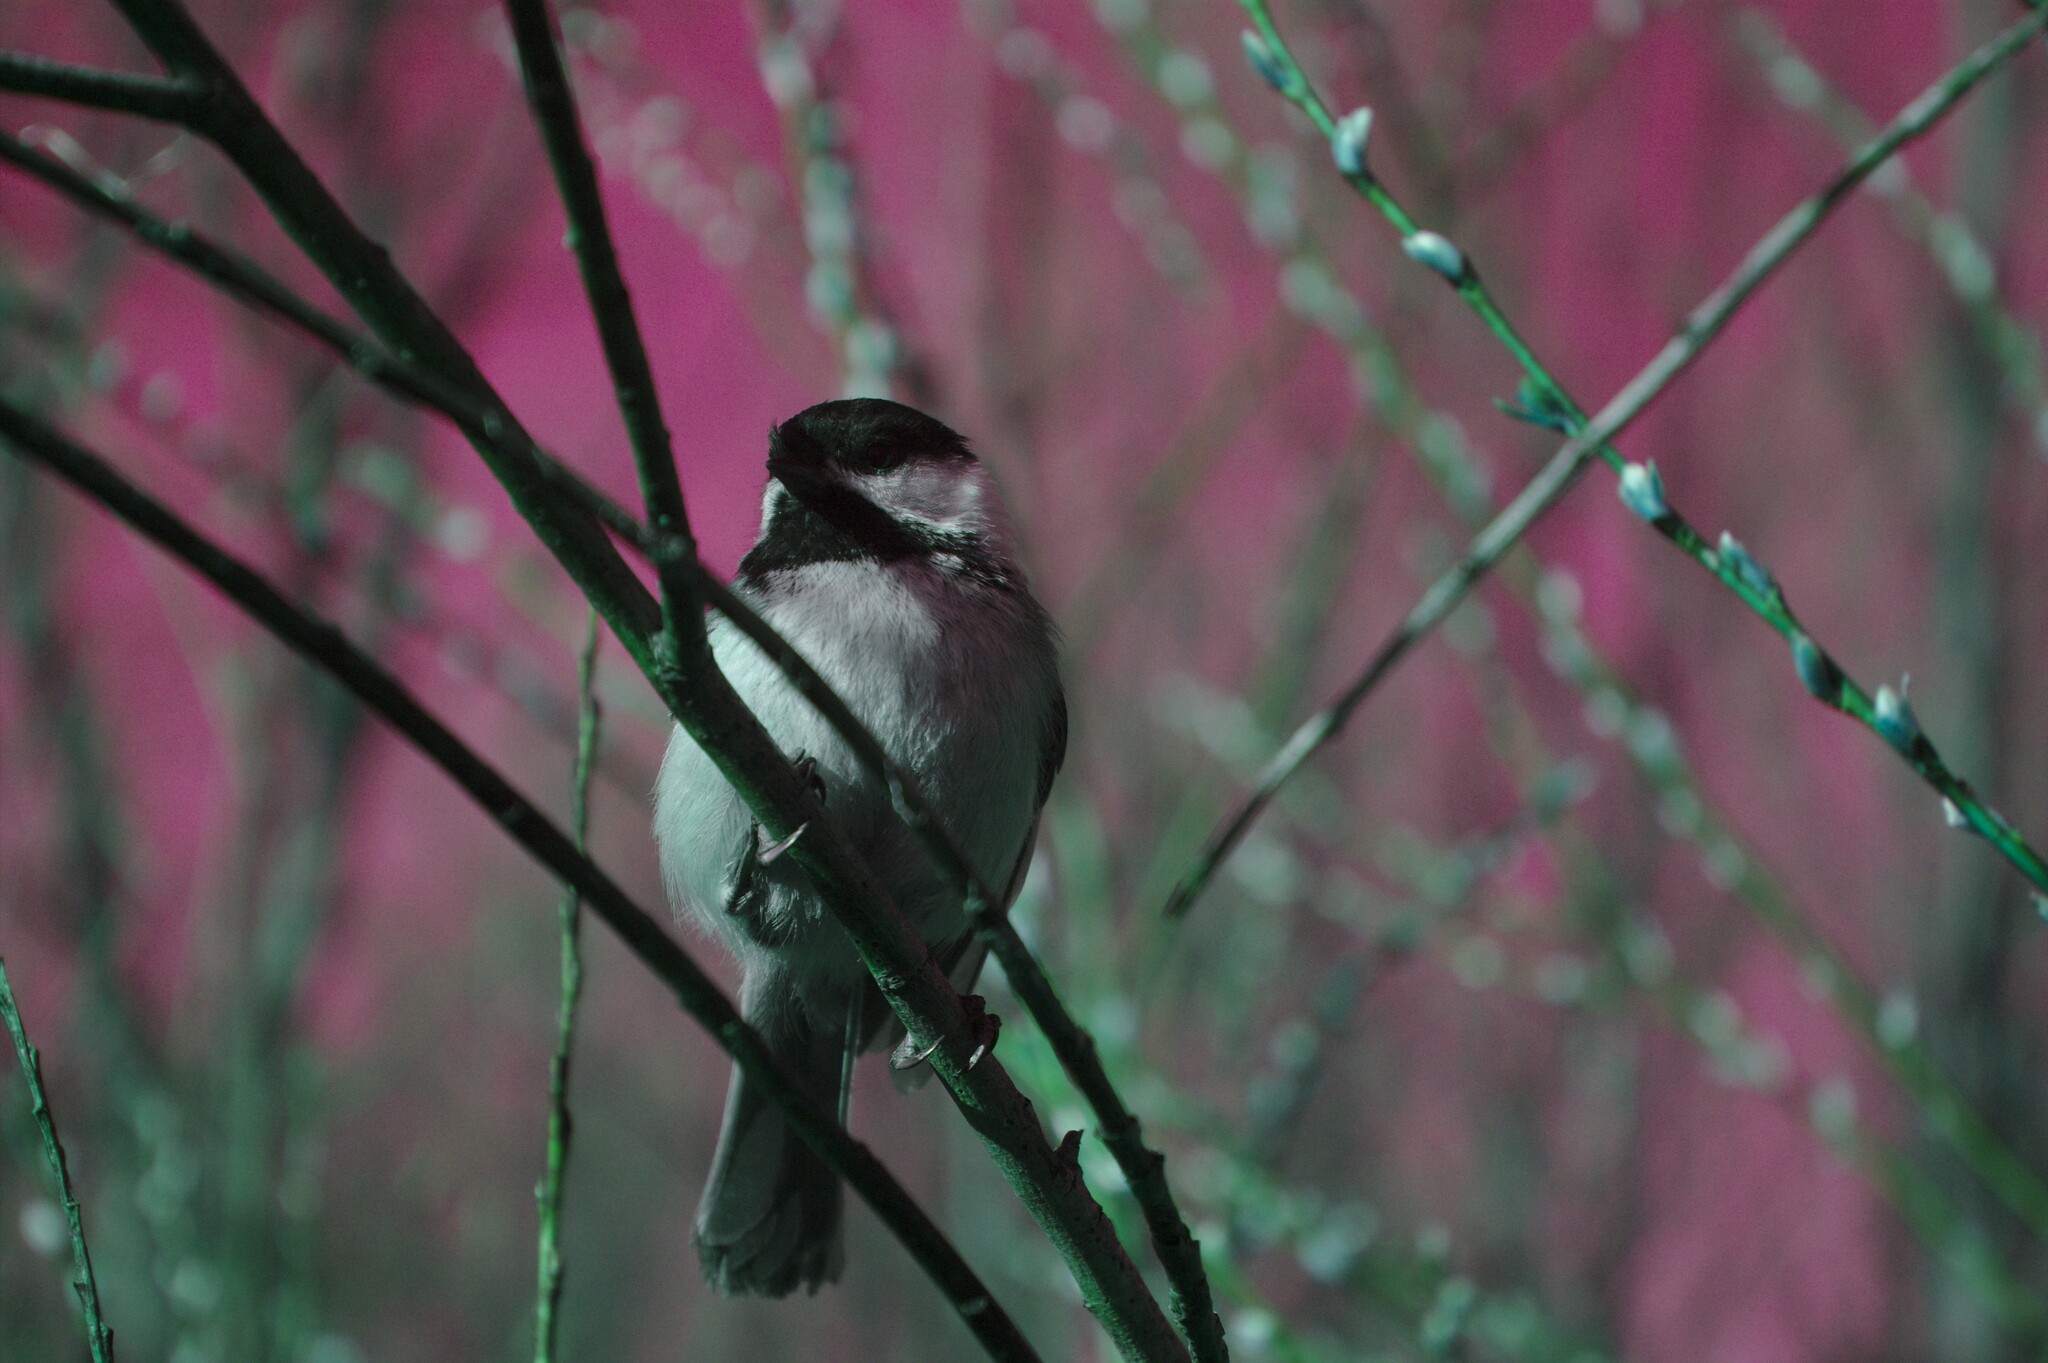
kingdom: Animalia
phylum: Chordata
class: Aves
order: Passeriformes
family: Paridae
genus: Poecile
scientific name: Poecile atricapillus
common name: Black-capped chickadee
